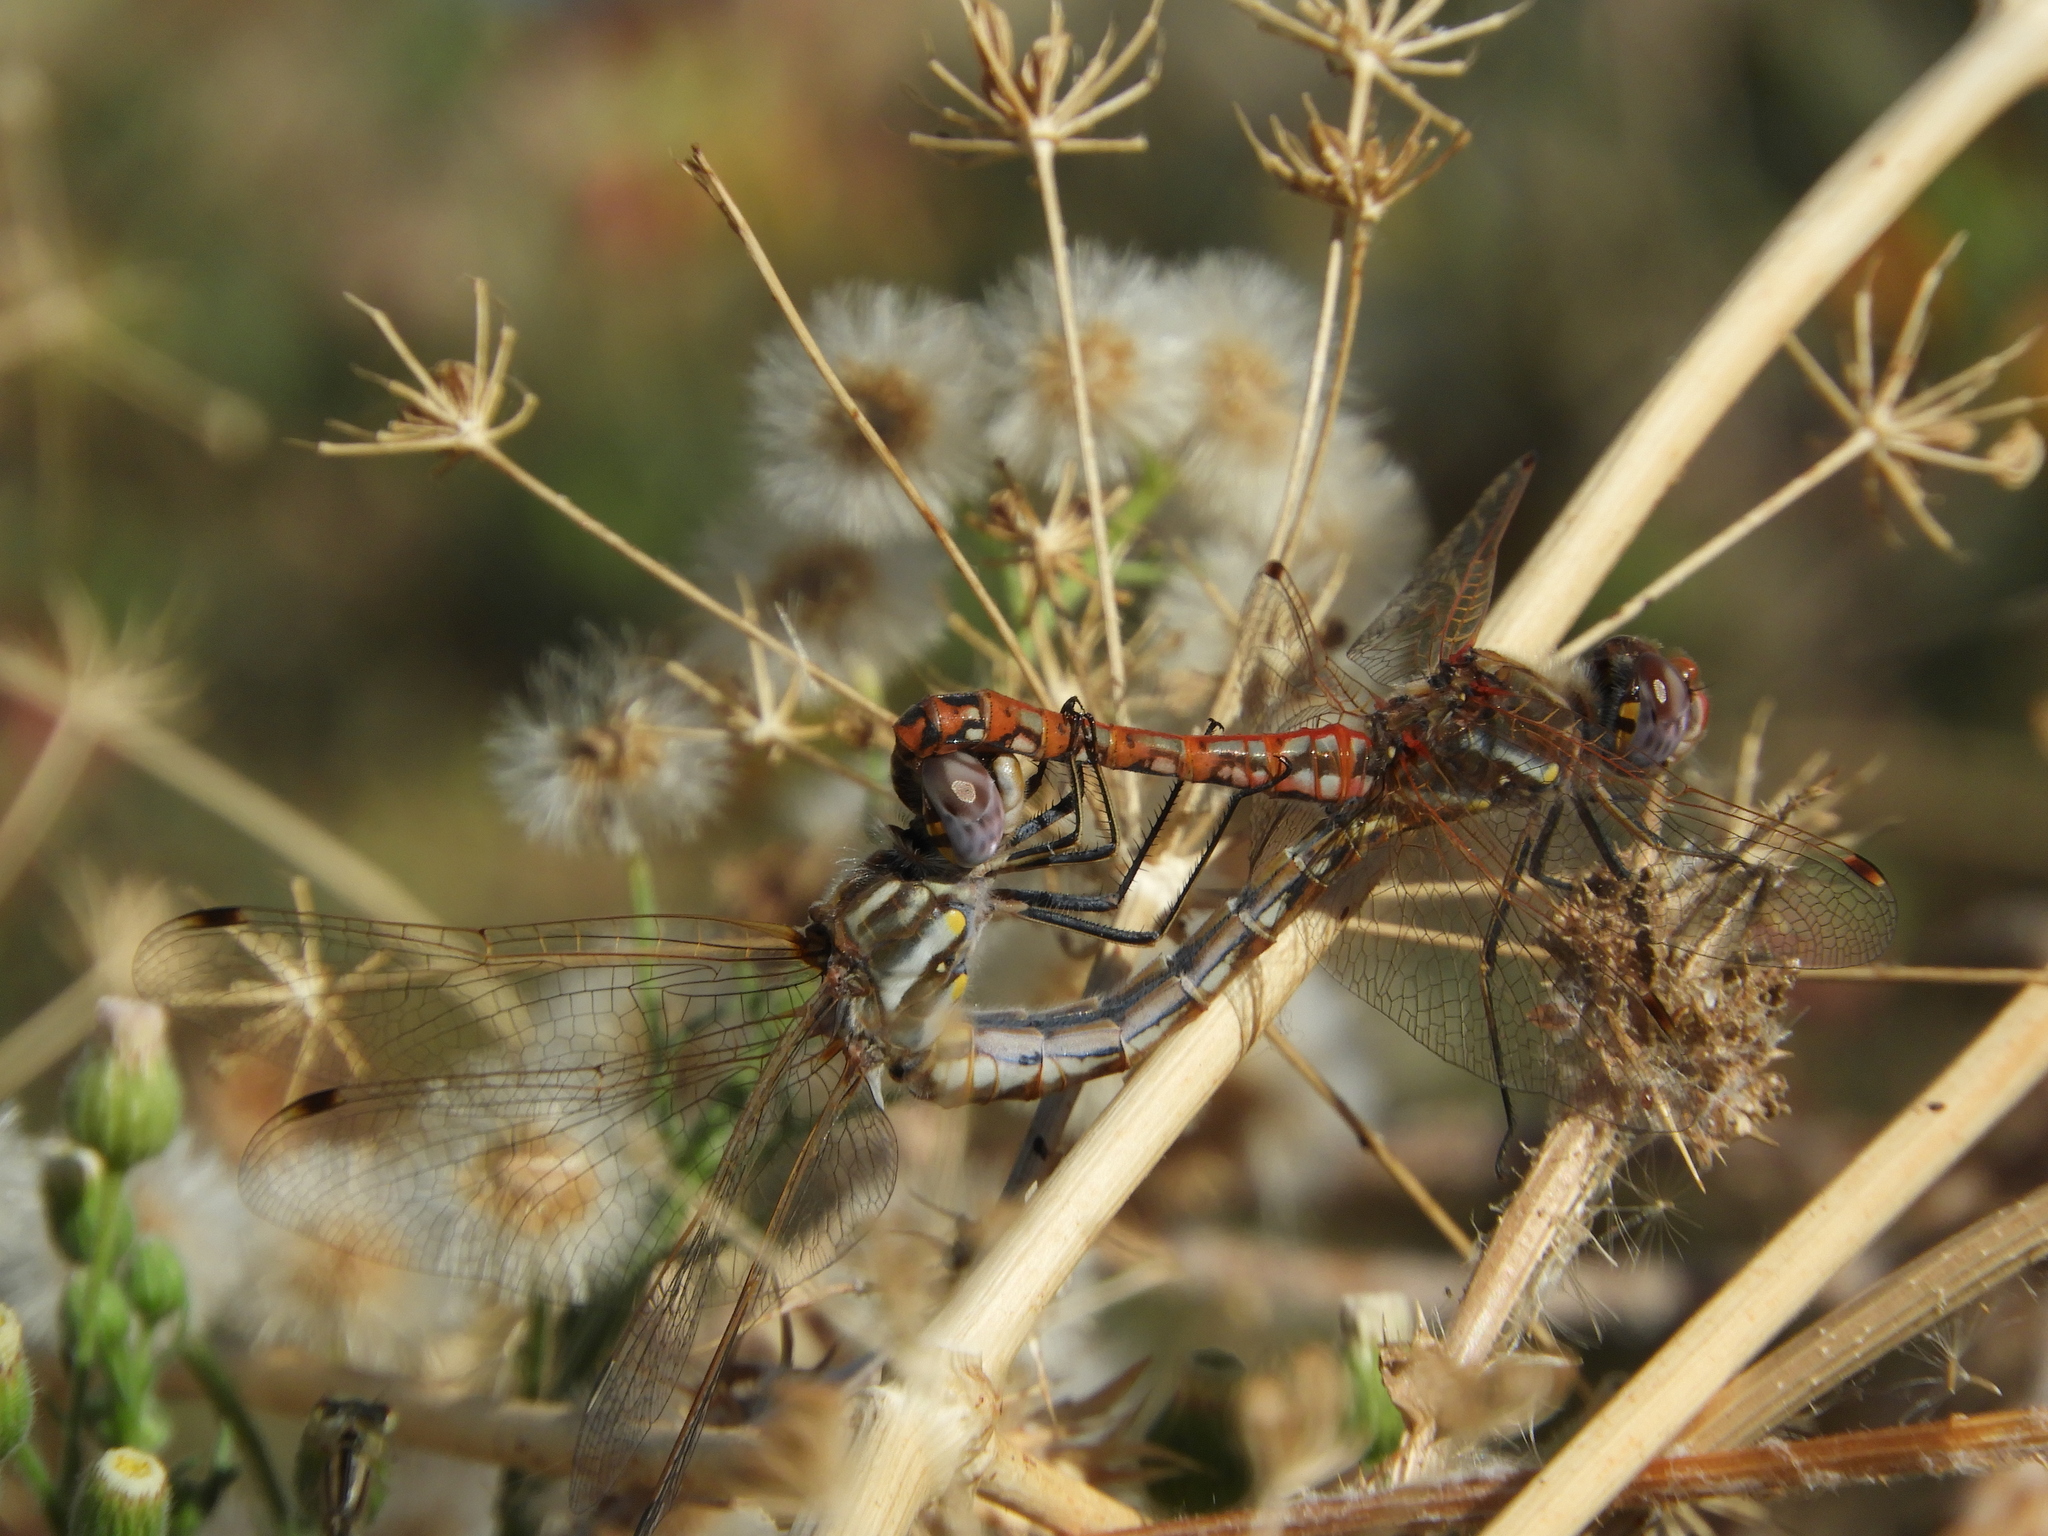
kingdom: Animalia
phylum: Arthropoda
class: Insecta
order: Odonata
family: Libellulidae
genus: Sympetrum
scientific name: Sympetrum corruptum
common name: Variegated meadowhawk
